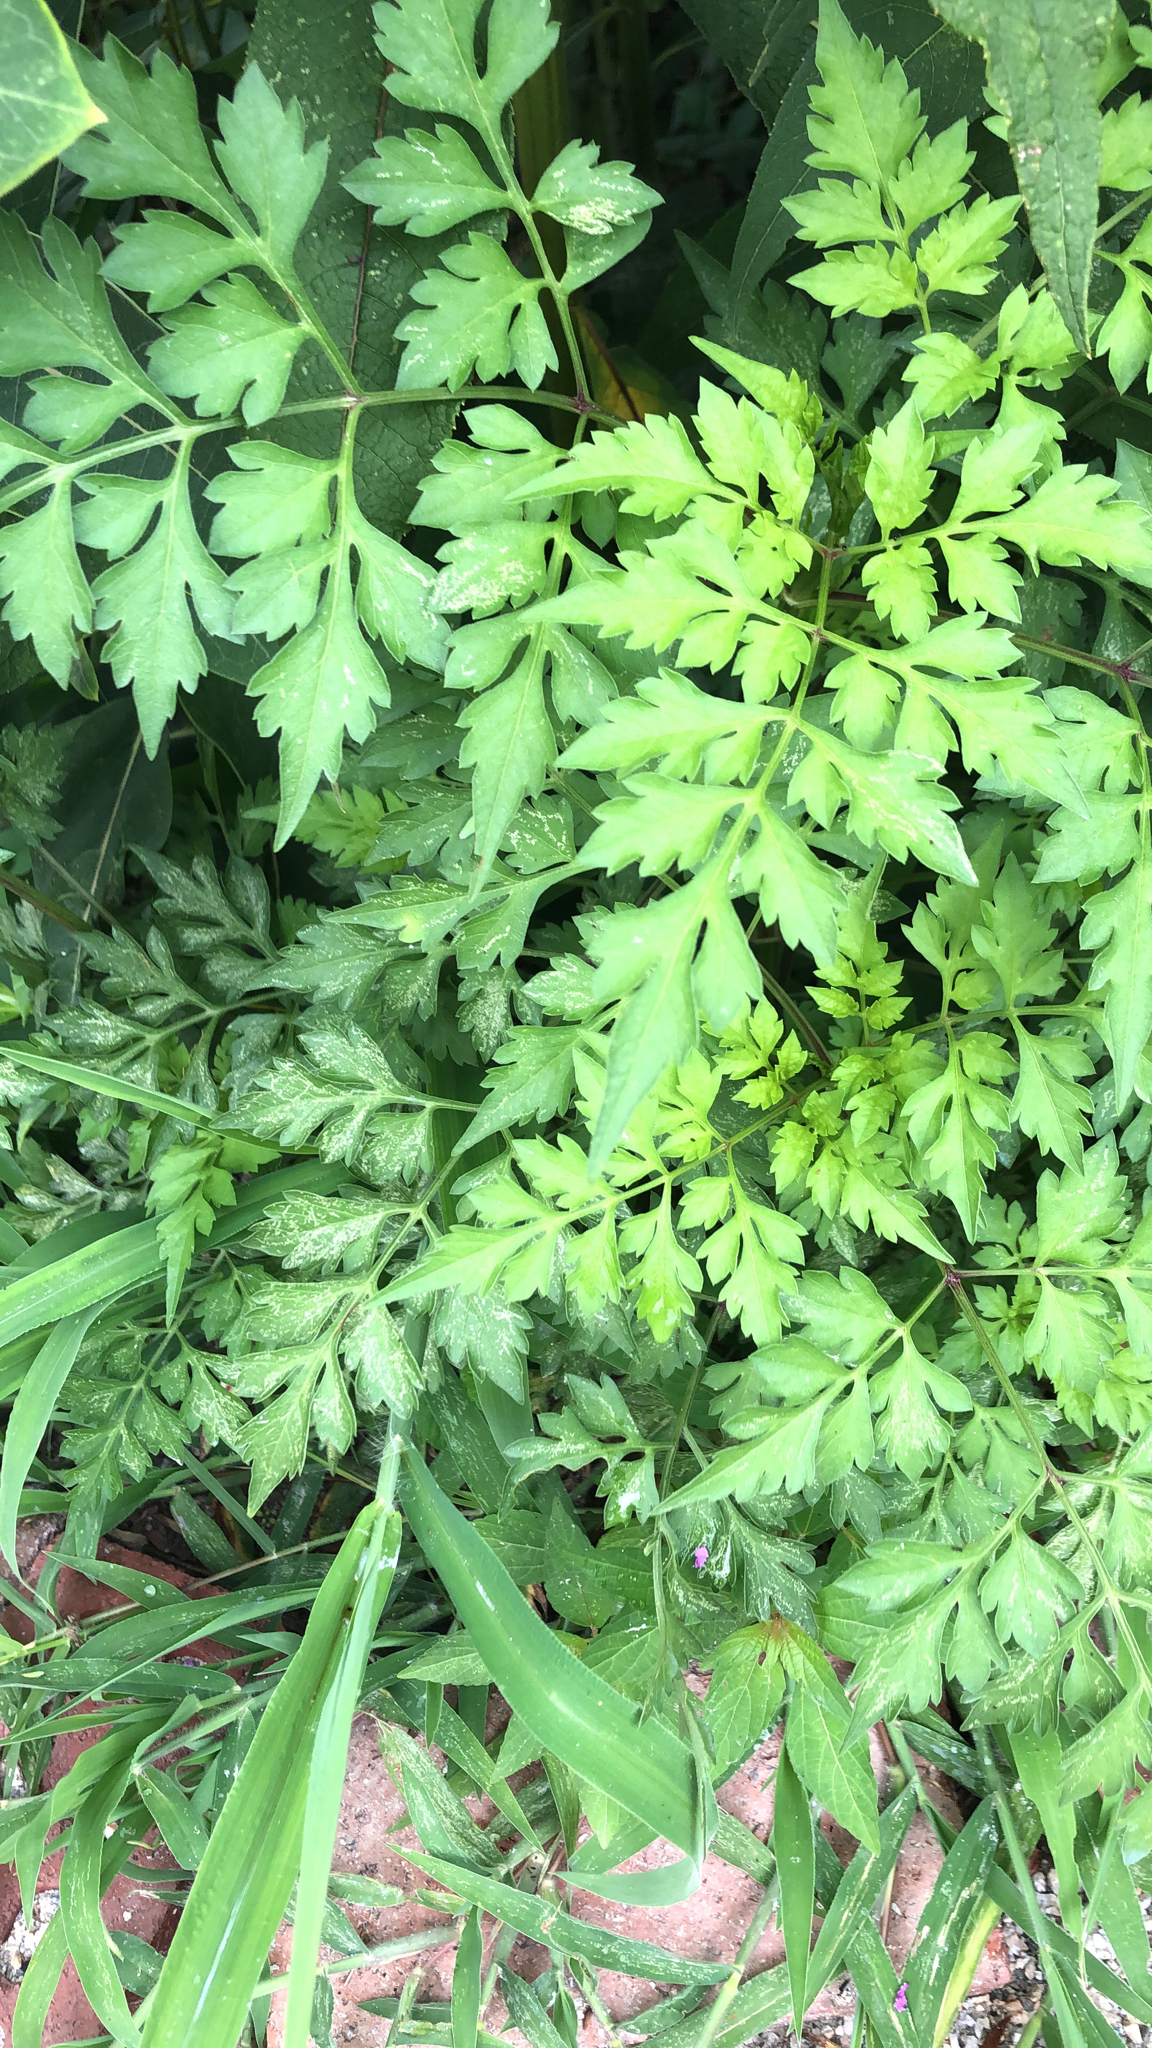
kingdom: Plantae
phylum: Tracheophyta
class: Magnoliopsida
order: Asterales
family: Asteraceae
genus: Bidens
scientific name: Bidens bipinnata
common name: Spanish-needles
